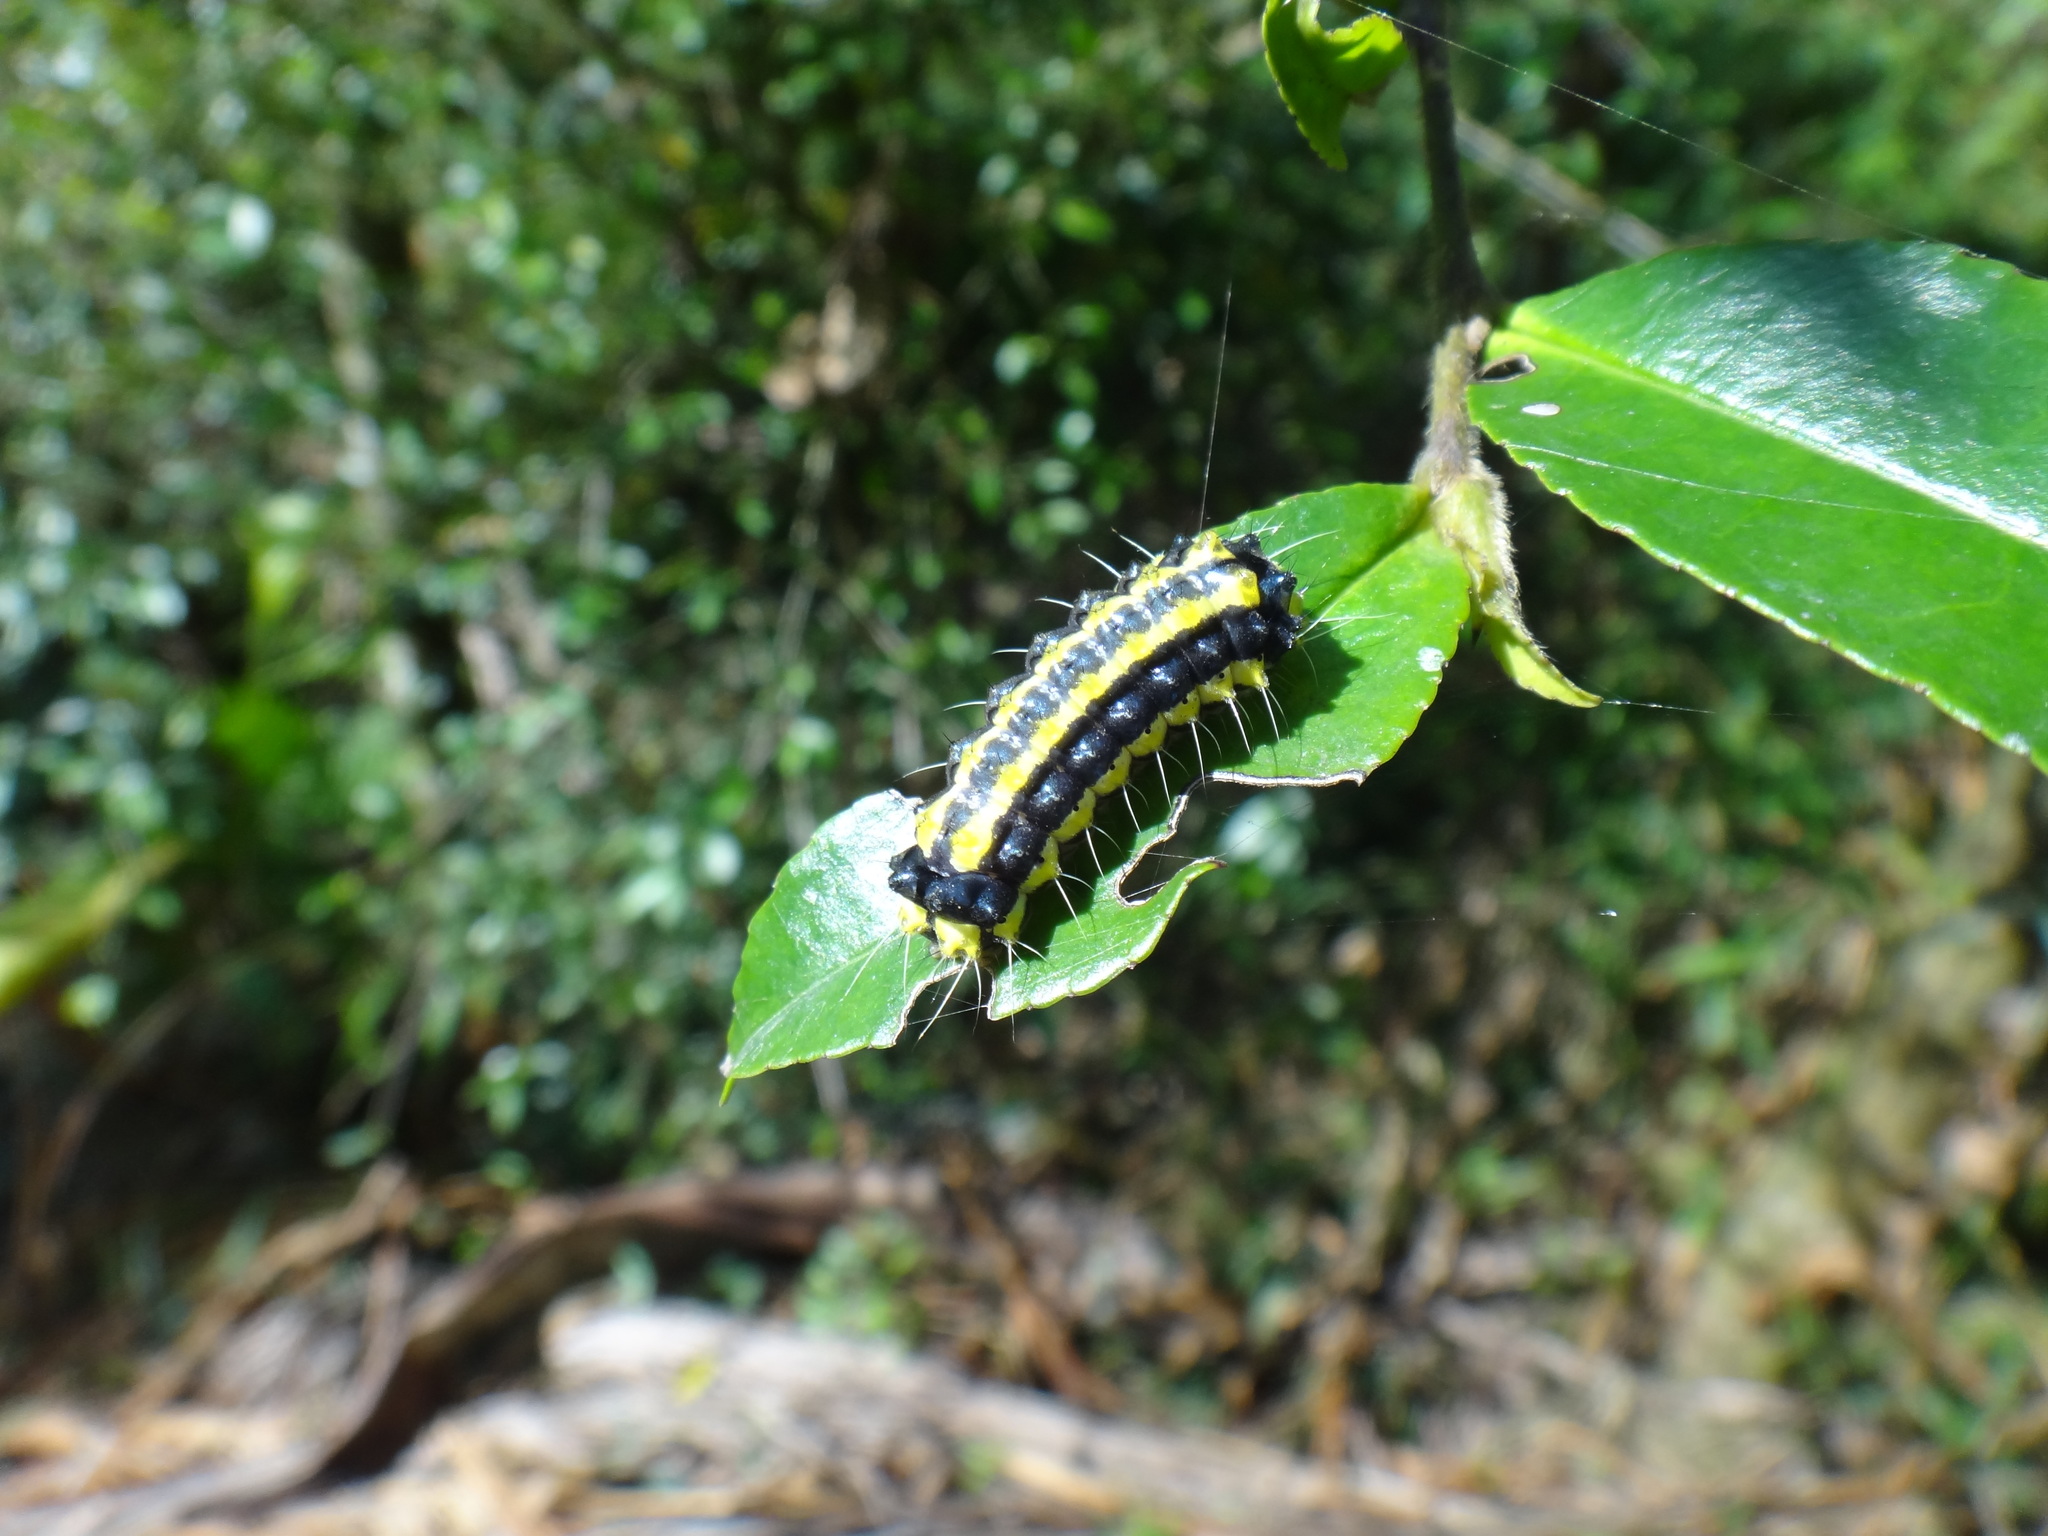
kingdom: Animalia
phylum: Arthropoda
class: Insecta
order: Lepidoptera
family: Zygaenidae
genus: Pidorus
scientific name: Pidorus glaucopis
